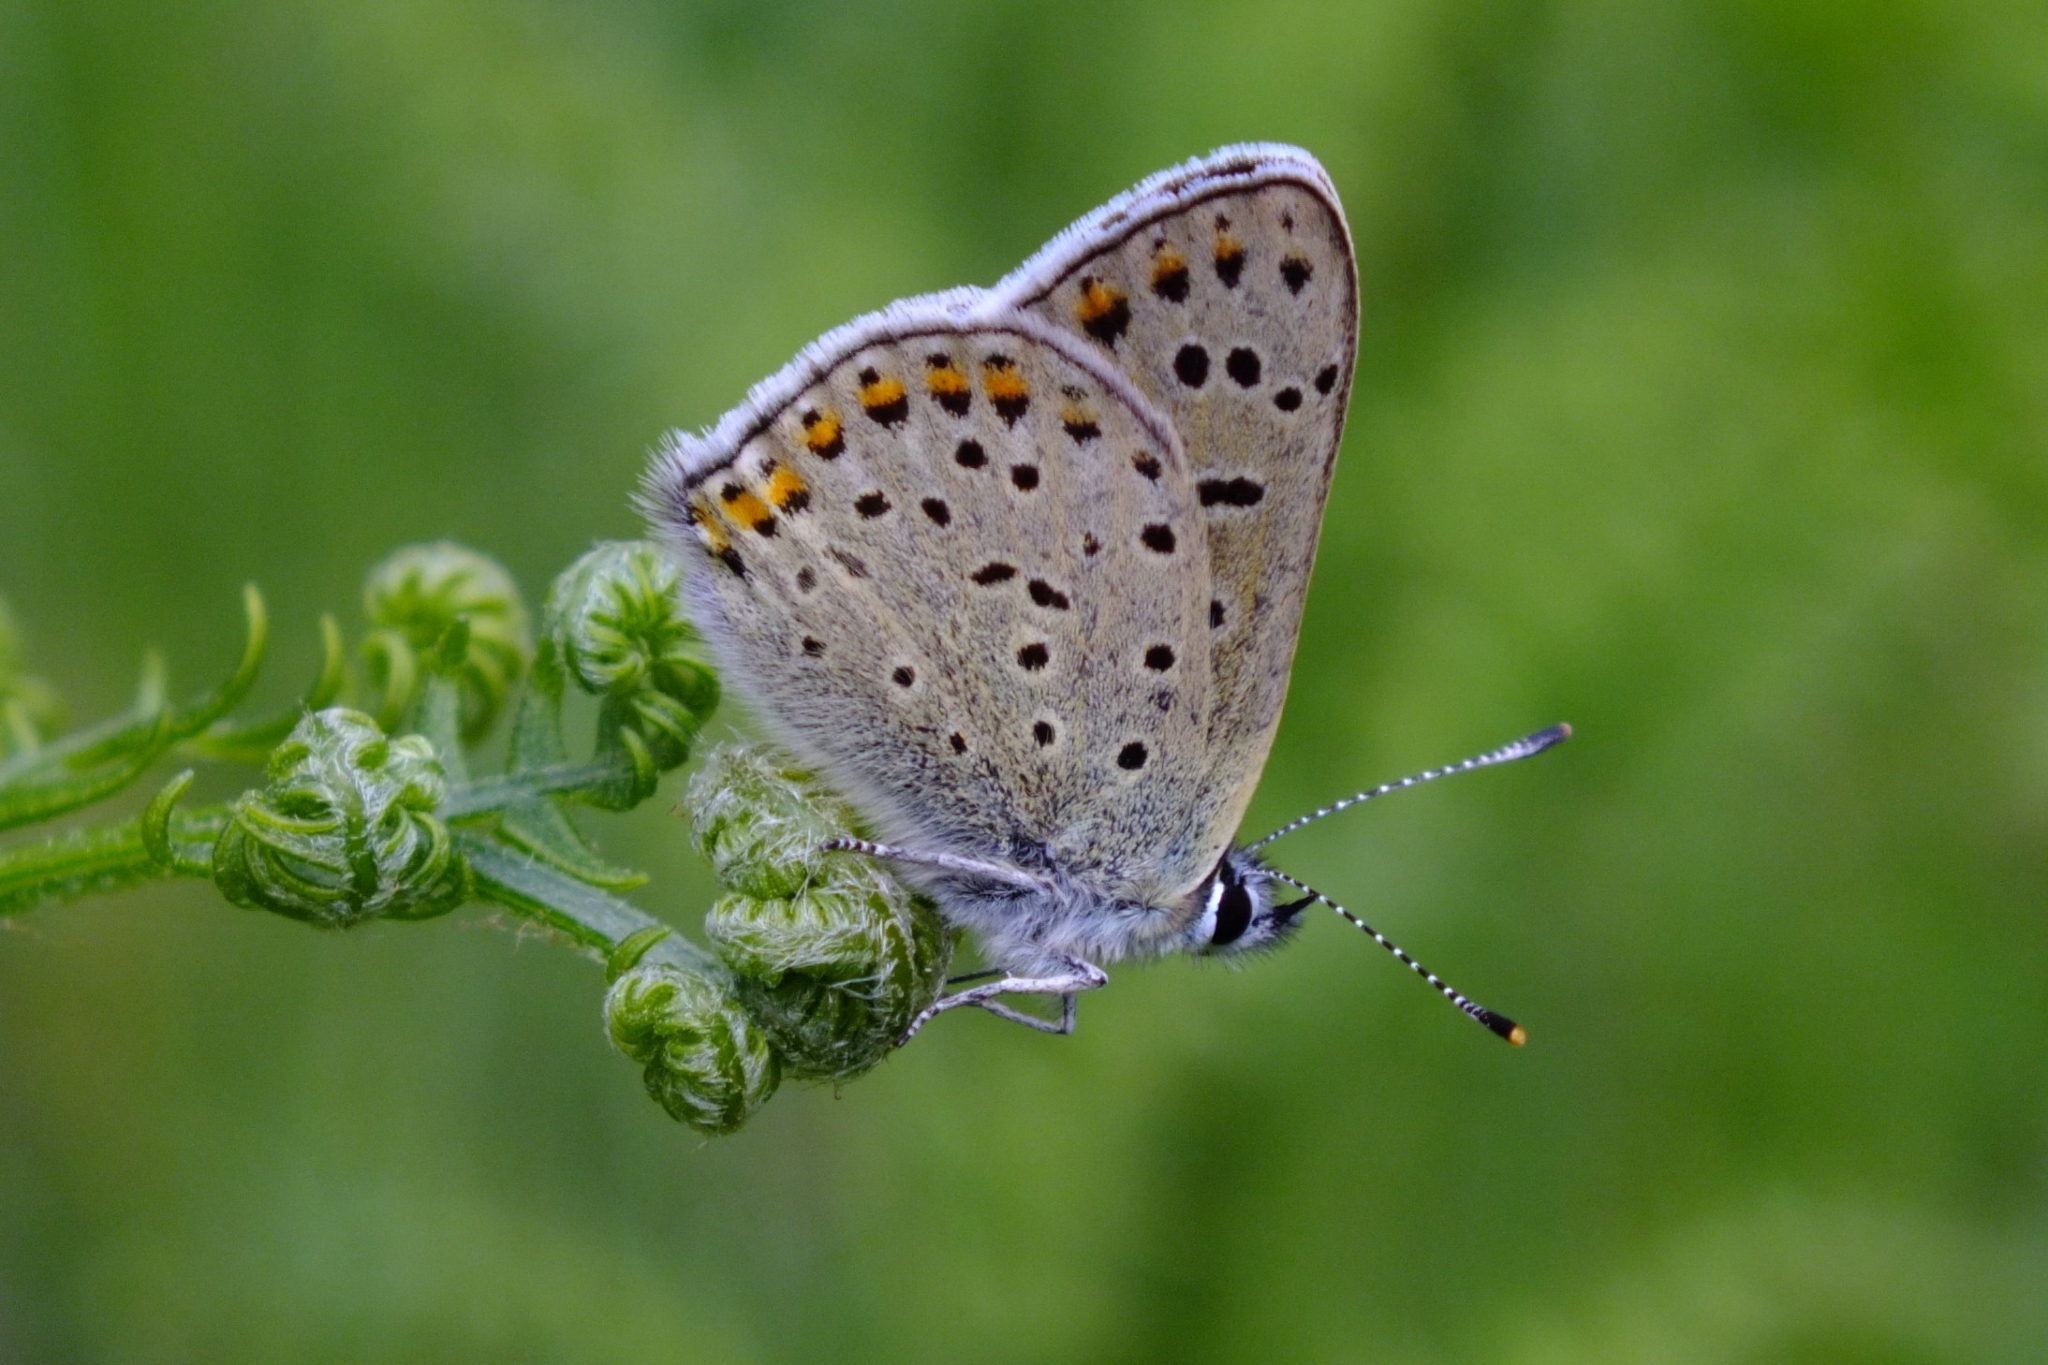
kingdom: Animalia
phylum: Arthropoda
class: Insecta
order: Lepidoptera
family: Lycaenidae
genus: Loweia
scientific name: Loweia tityrus
